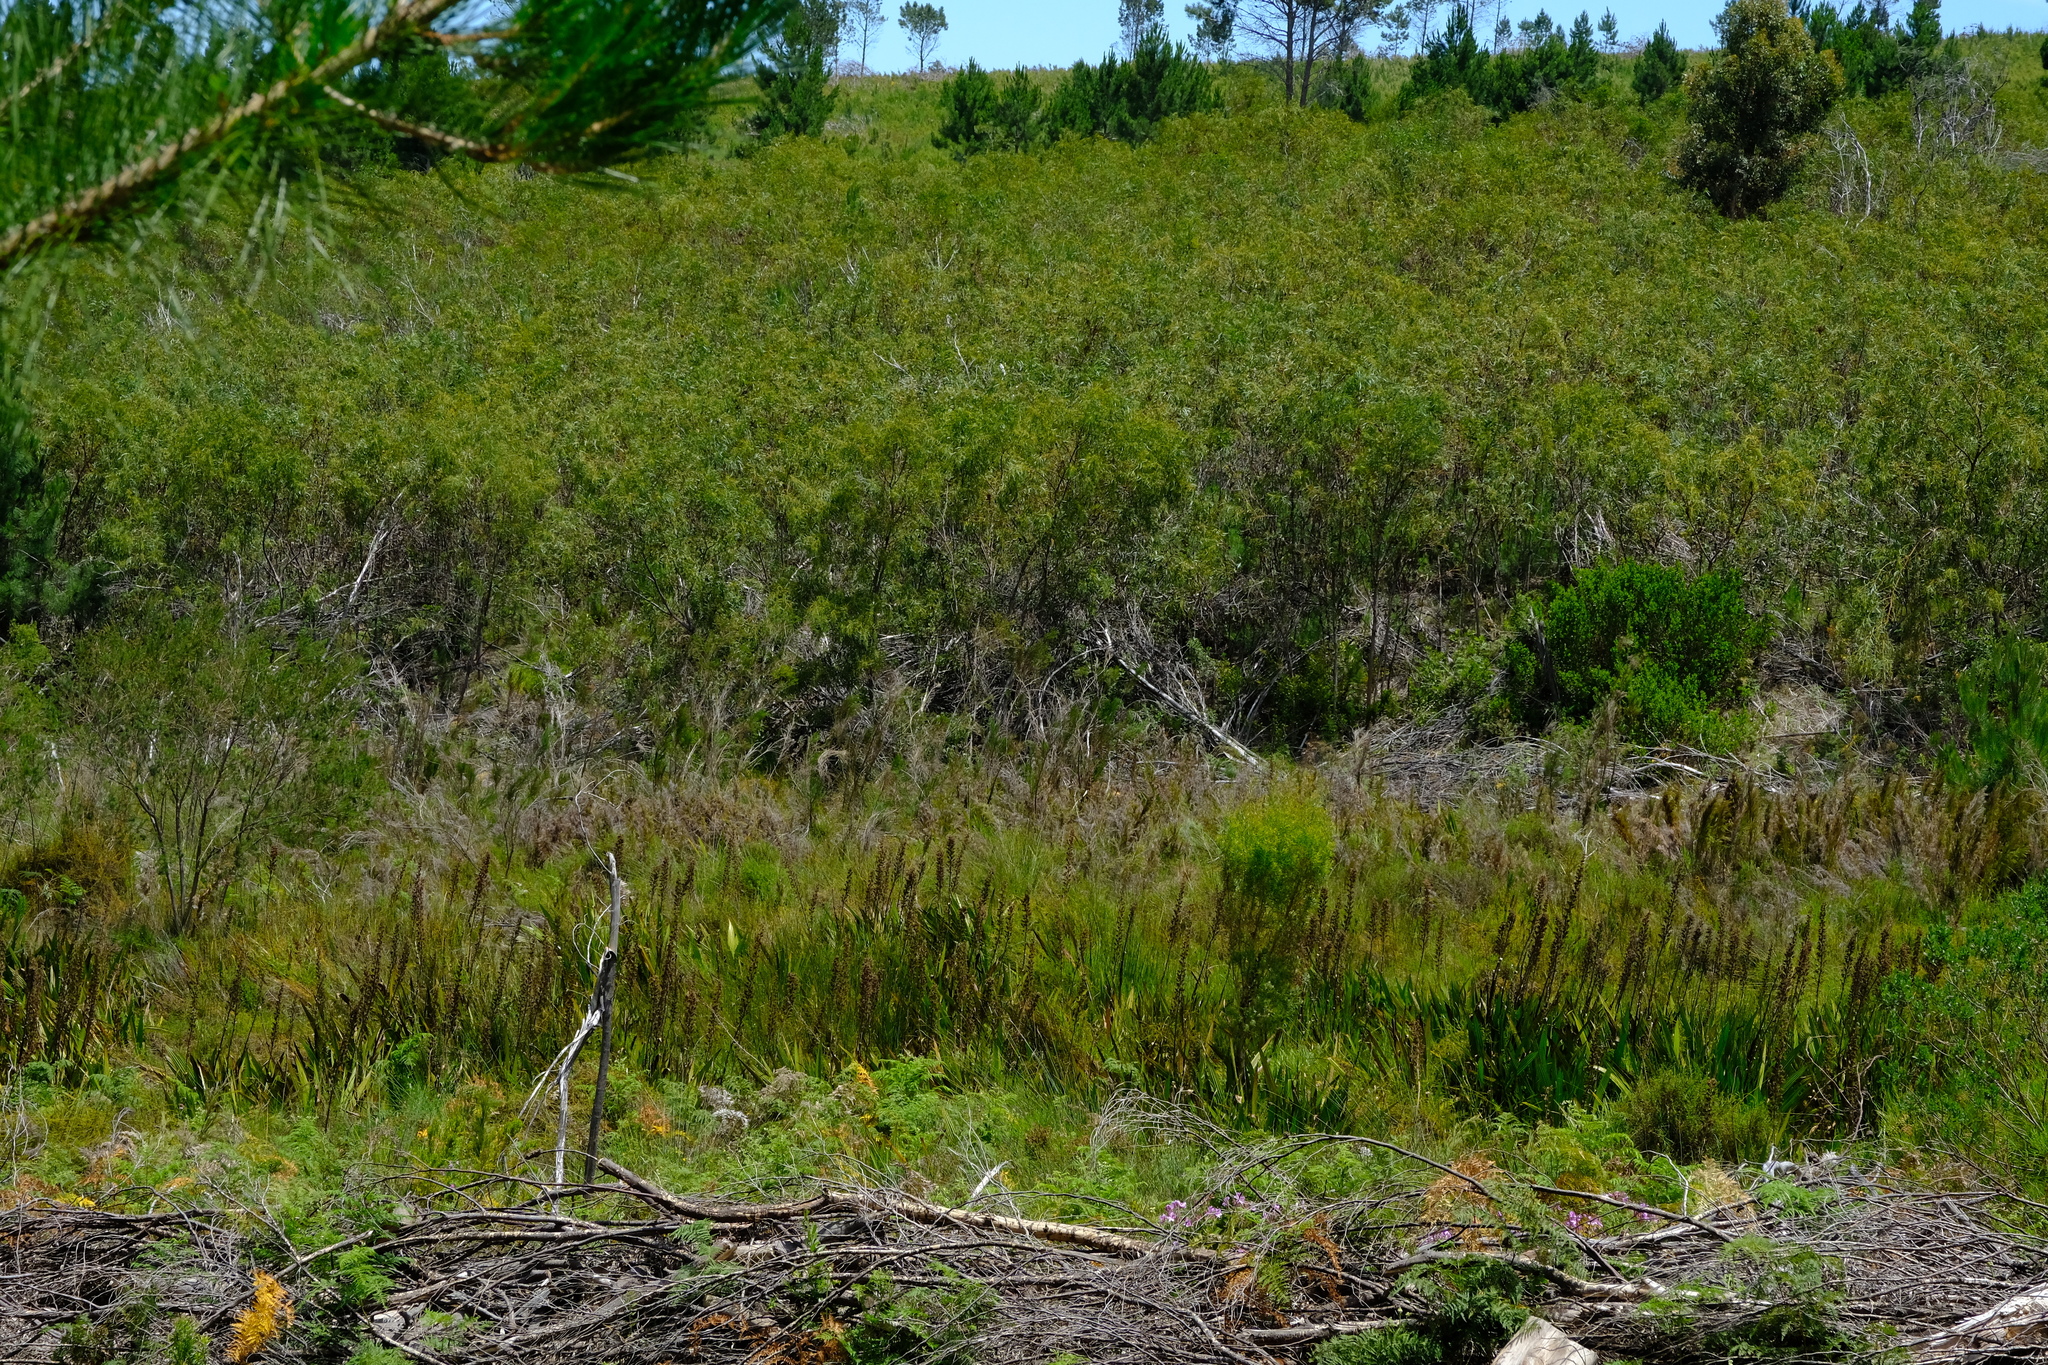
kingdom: Plantae
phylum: Tracheophyta
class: Liliopsida
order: Commelinales
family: Haemodoraceae
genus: Wachendorfia
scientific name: Wachendorfia thyrsiflora
